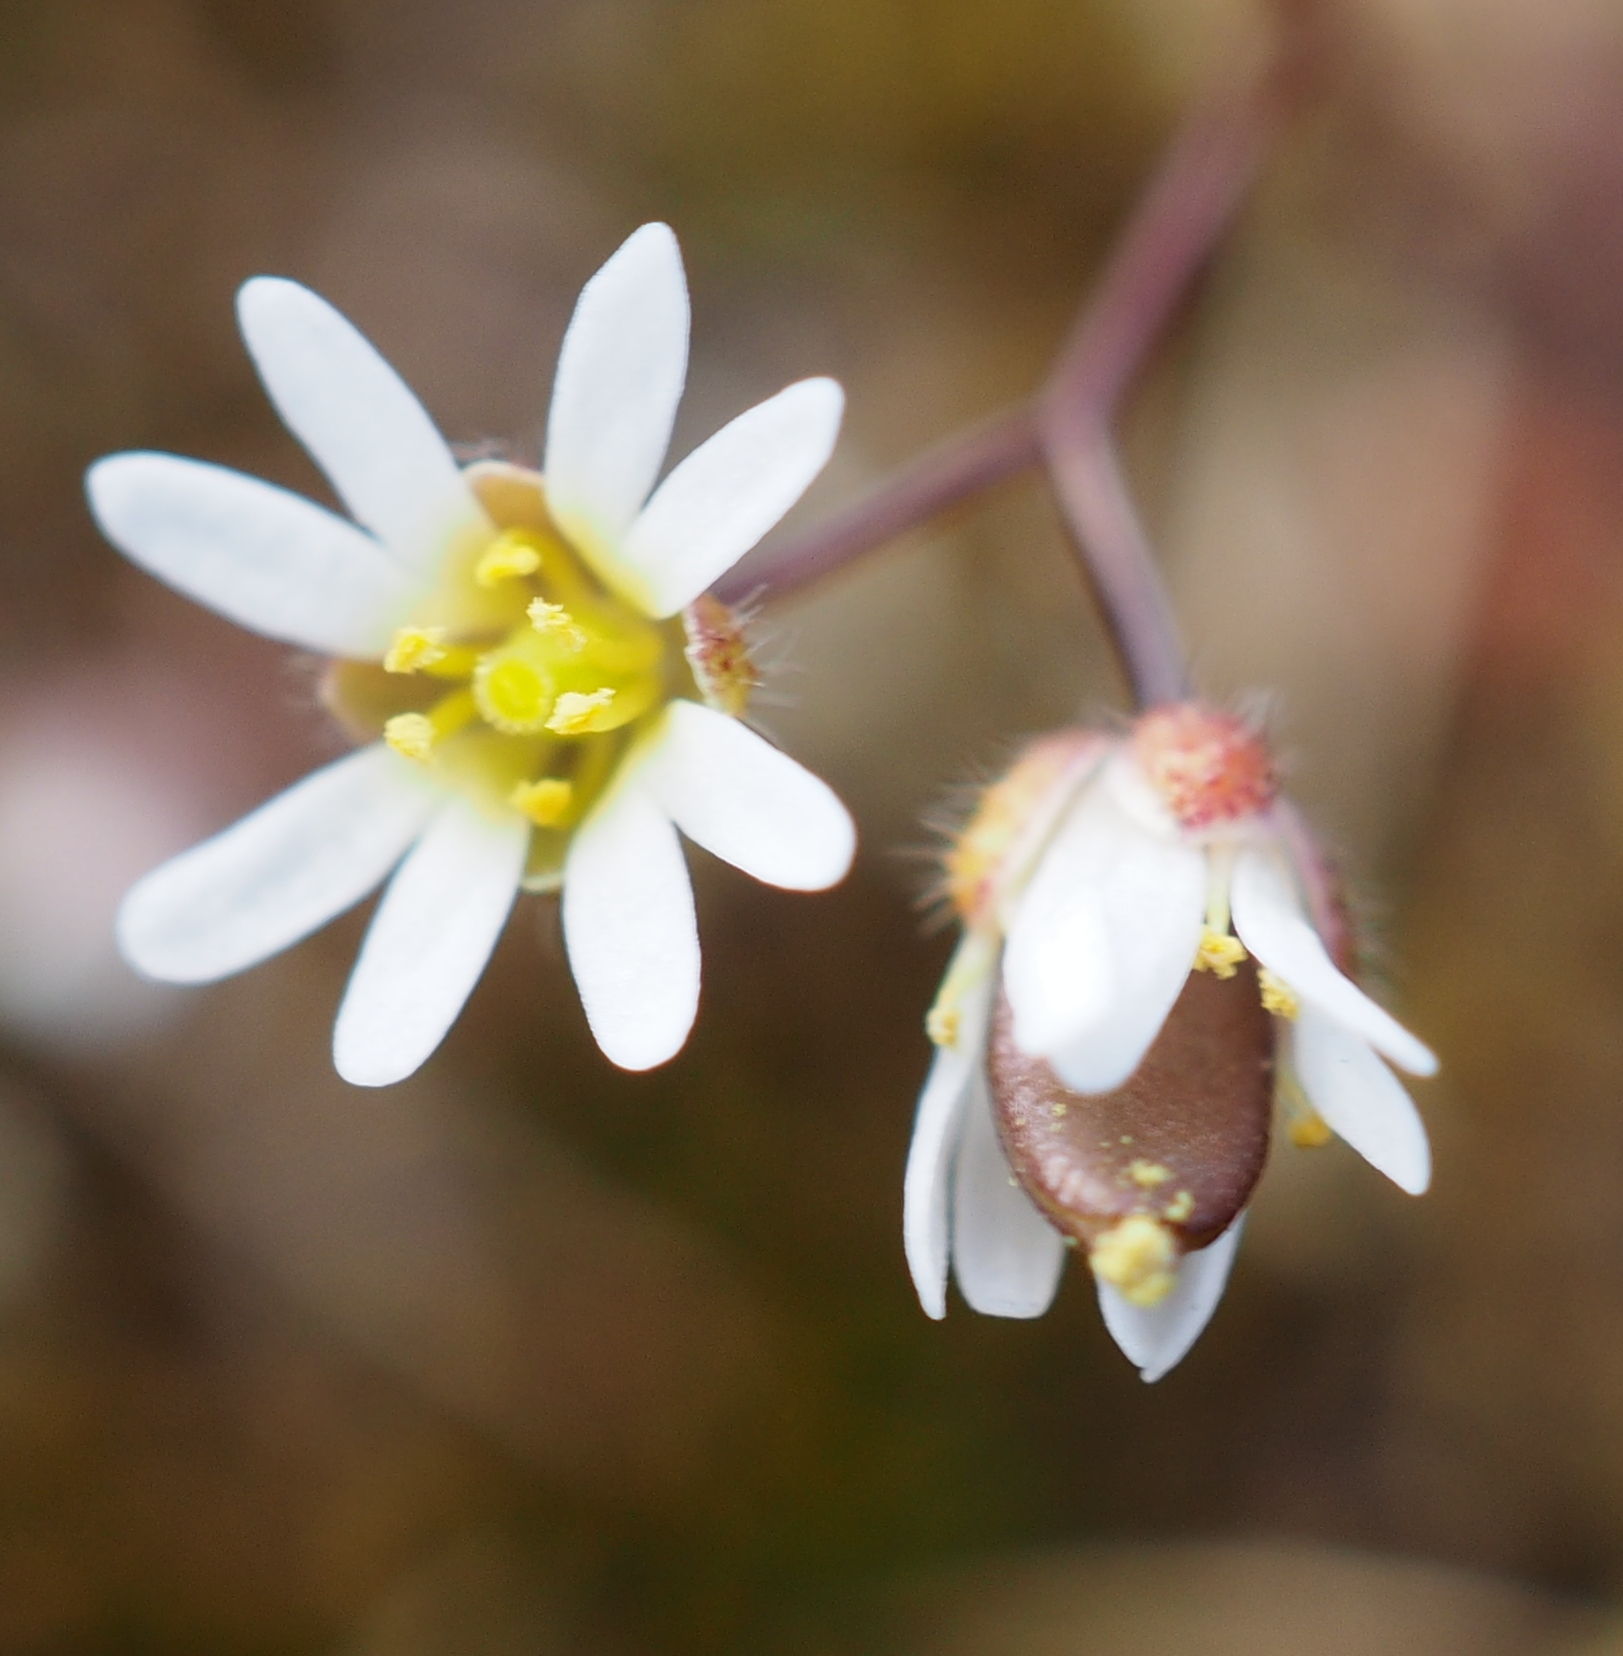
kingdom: Plantae
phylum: Tracheophyta
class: Magnoliopsida
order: Brassicales
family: Brassicaceae
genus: Draba
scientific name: Draba verna
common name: Spring draba
